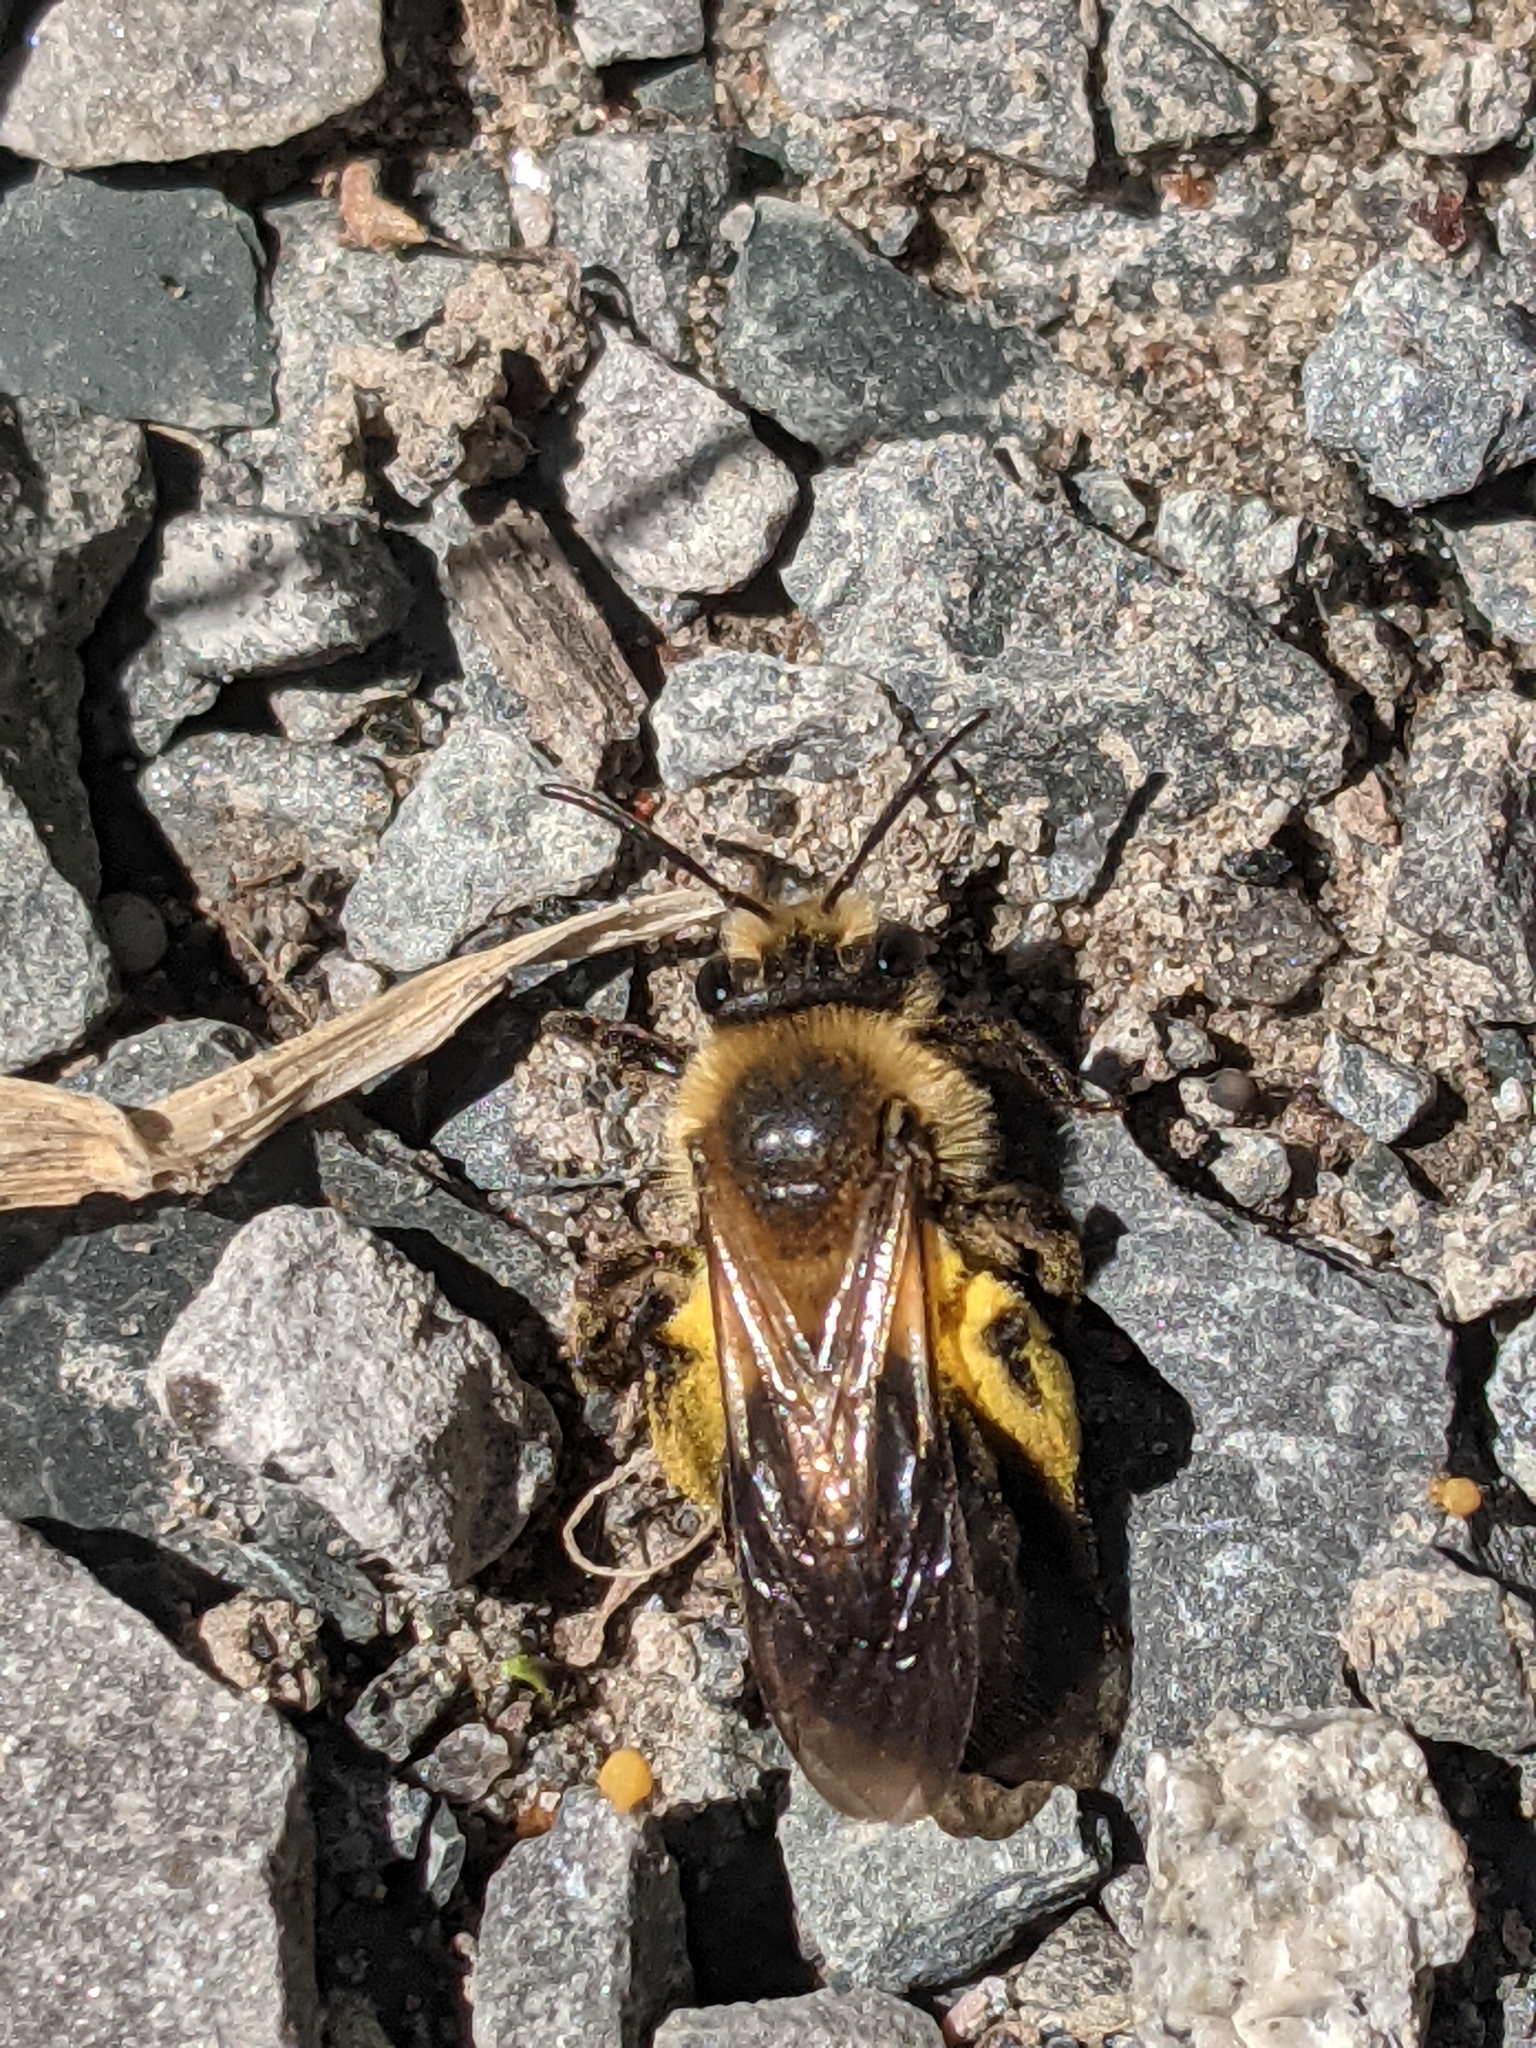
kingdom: Animalia
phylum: Arthropoda
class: Insecta
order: Hymenoptera
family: Andrenidae
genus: Andrena
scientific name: Andrena dunningi
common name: Dunning's miner
